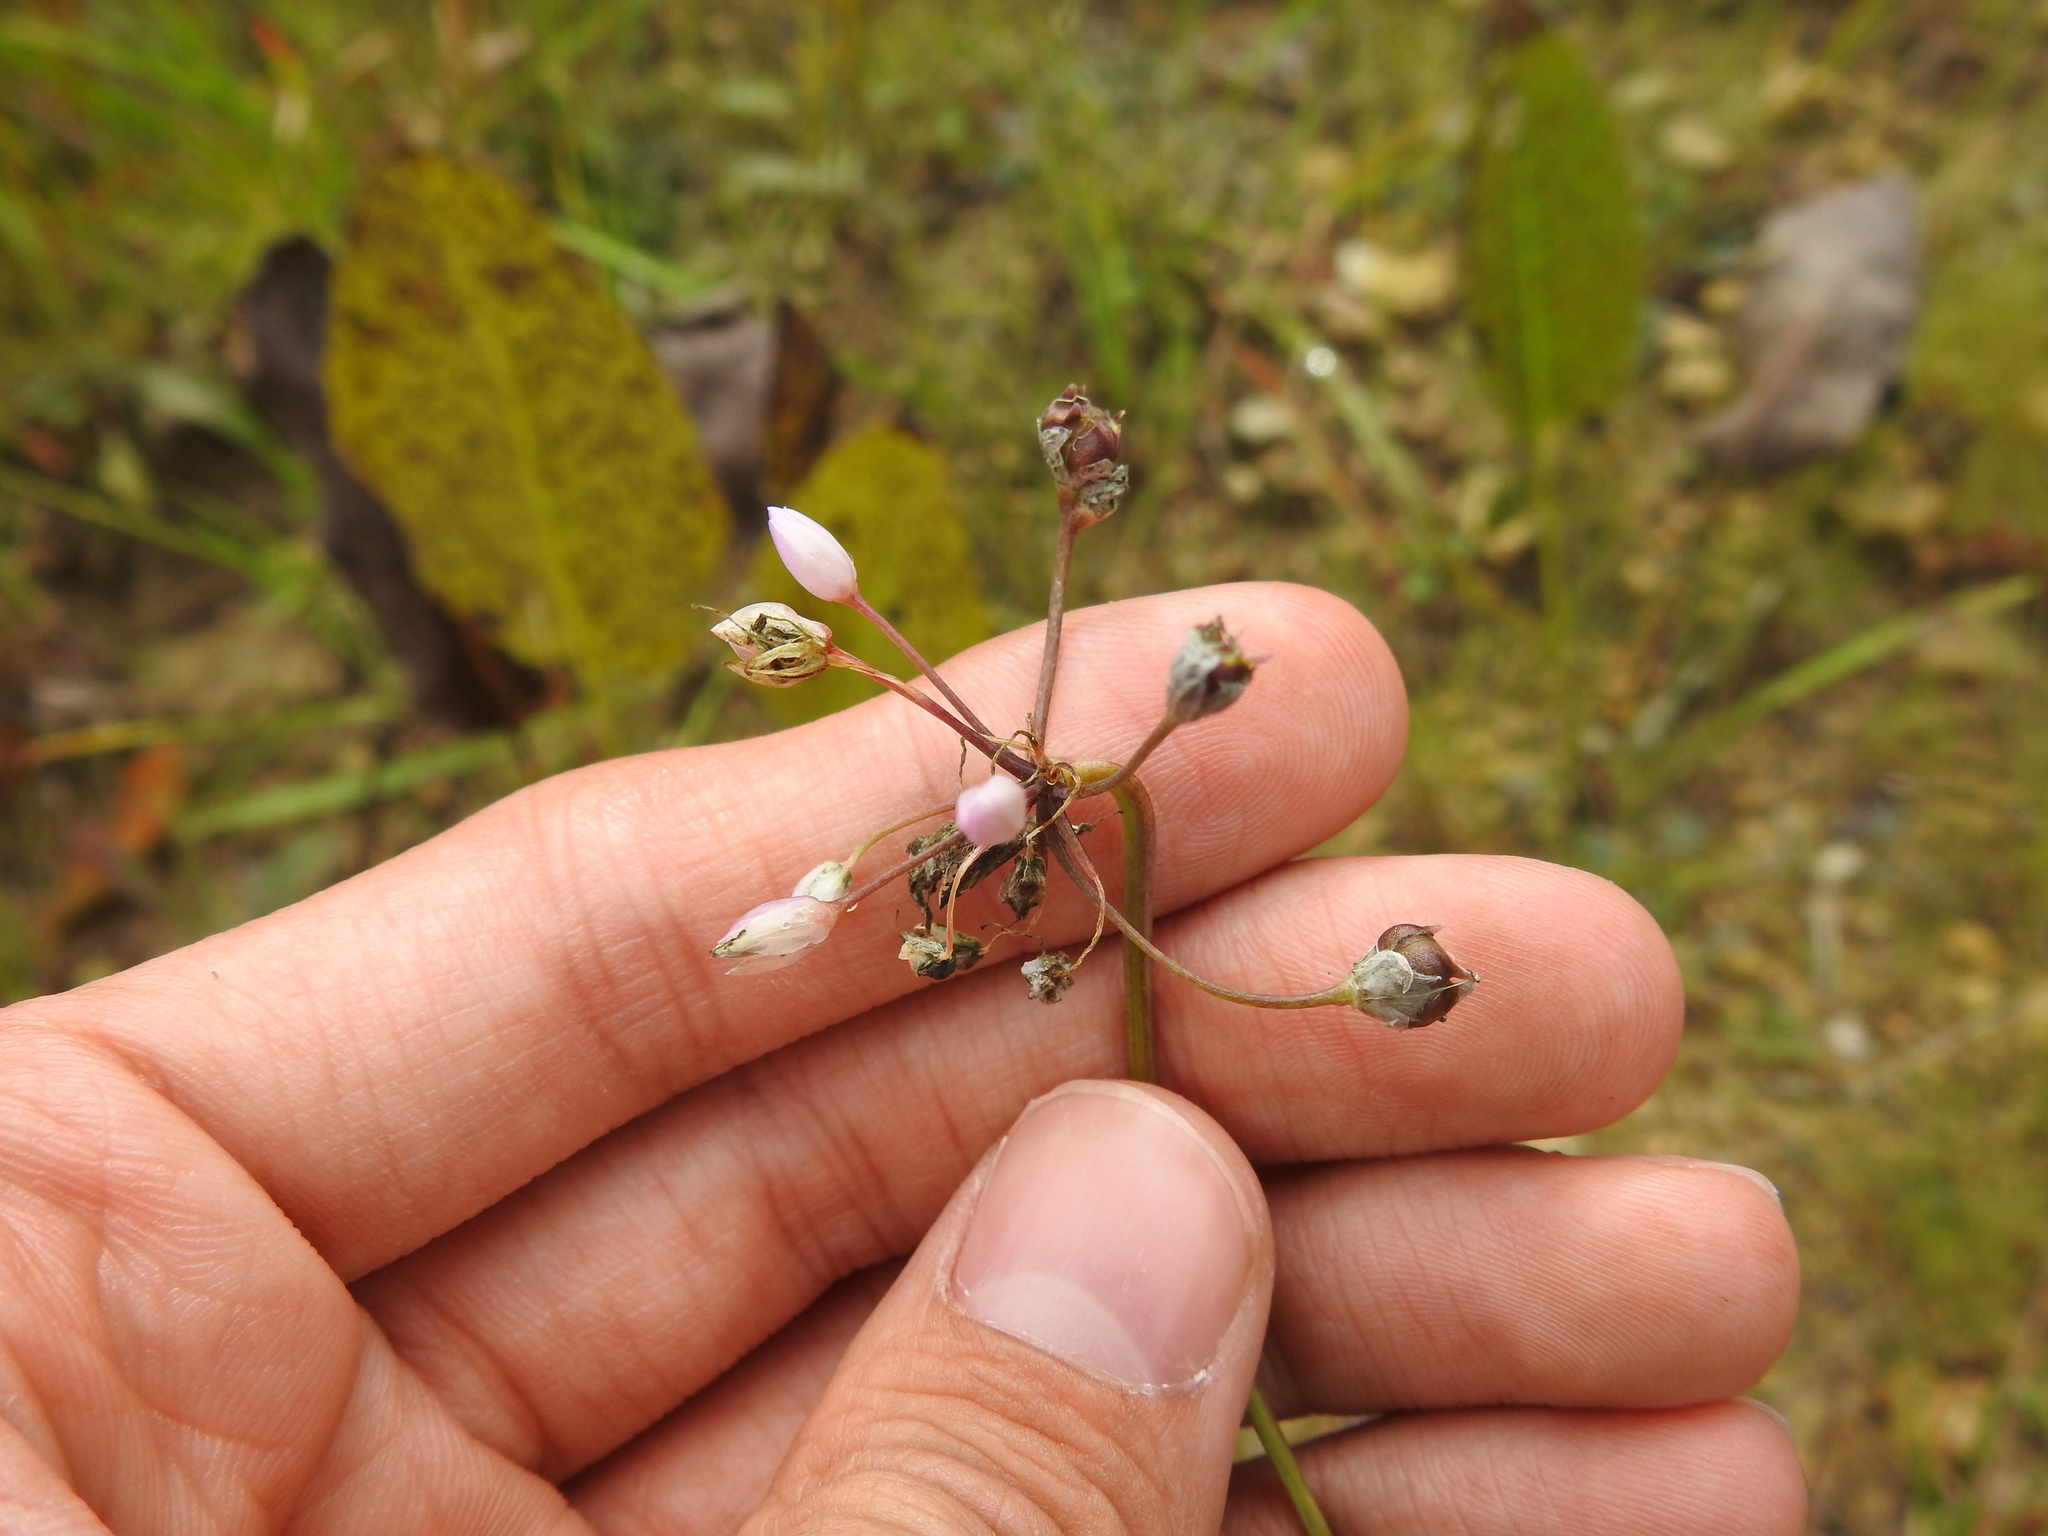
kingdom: Plantae
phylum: Tracheophyta
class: Liliopsida
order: Asparagales
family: Amaryllidaceae
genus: Allium
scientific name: Allium cernuum
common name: Nodding onion
